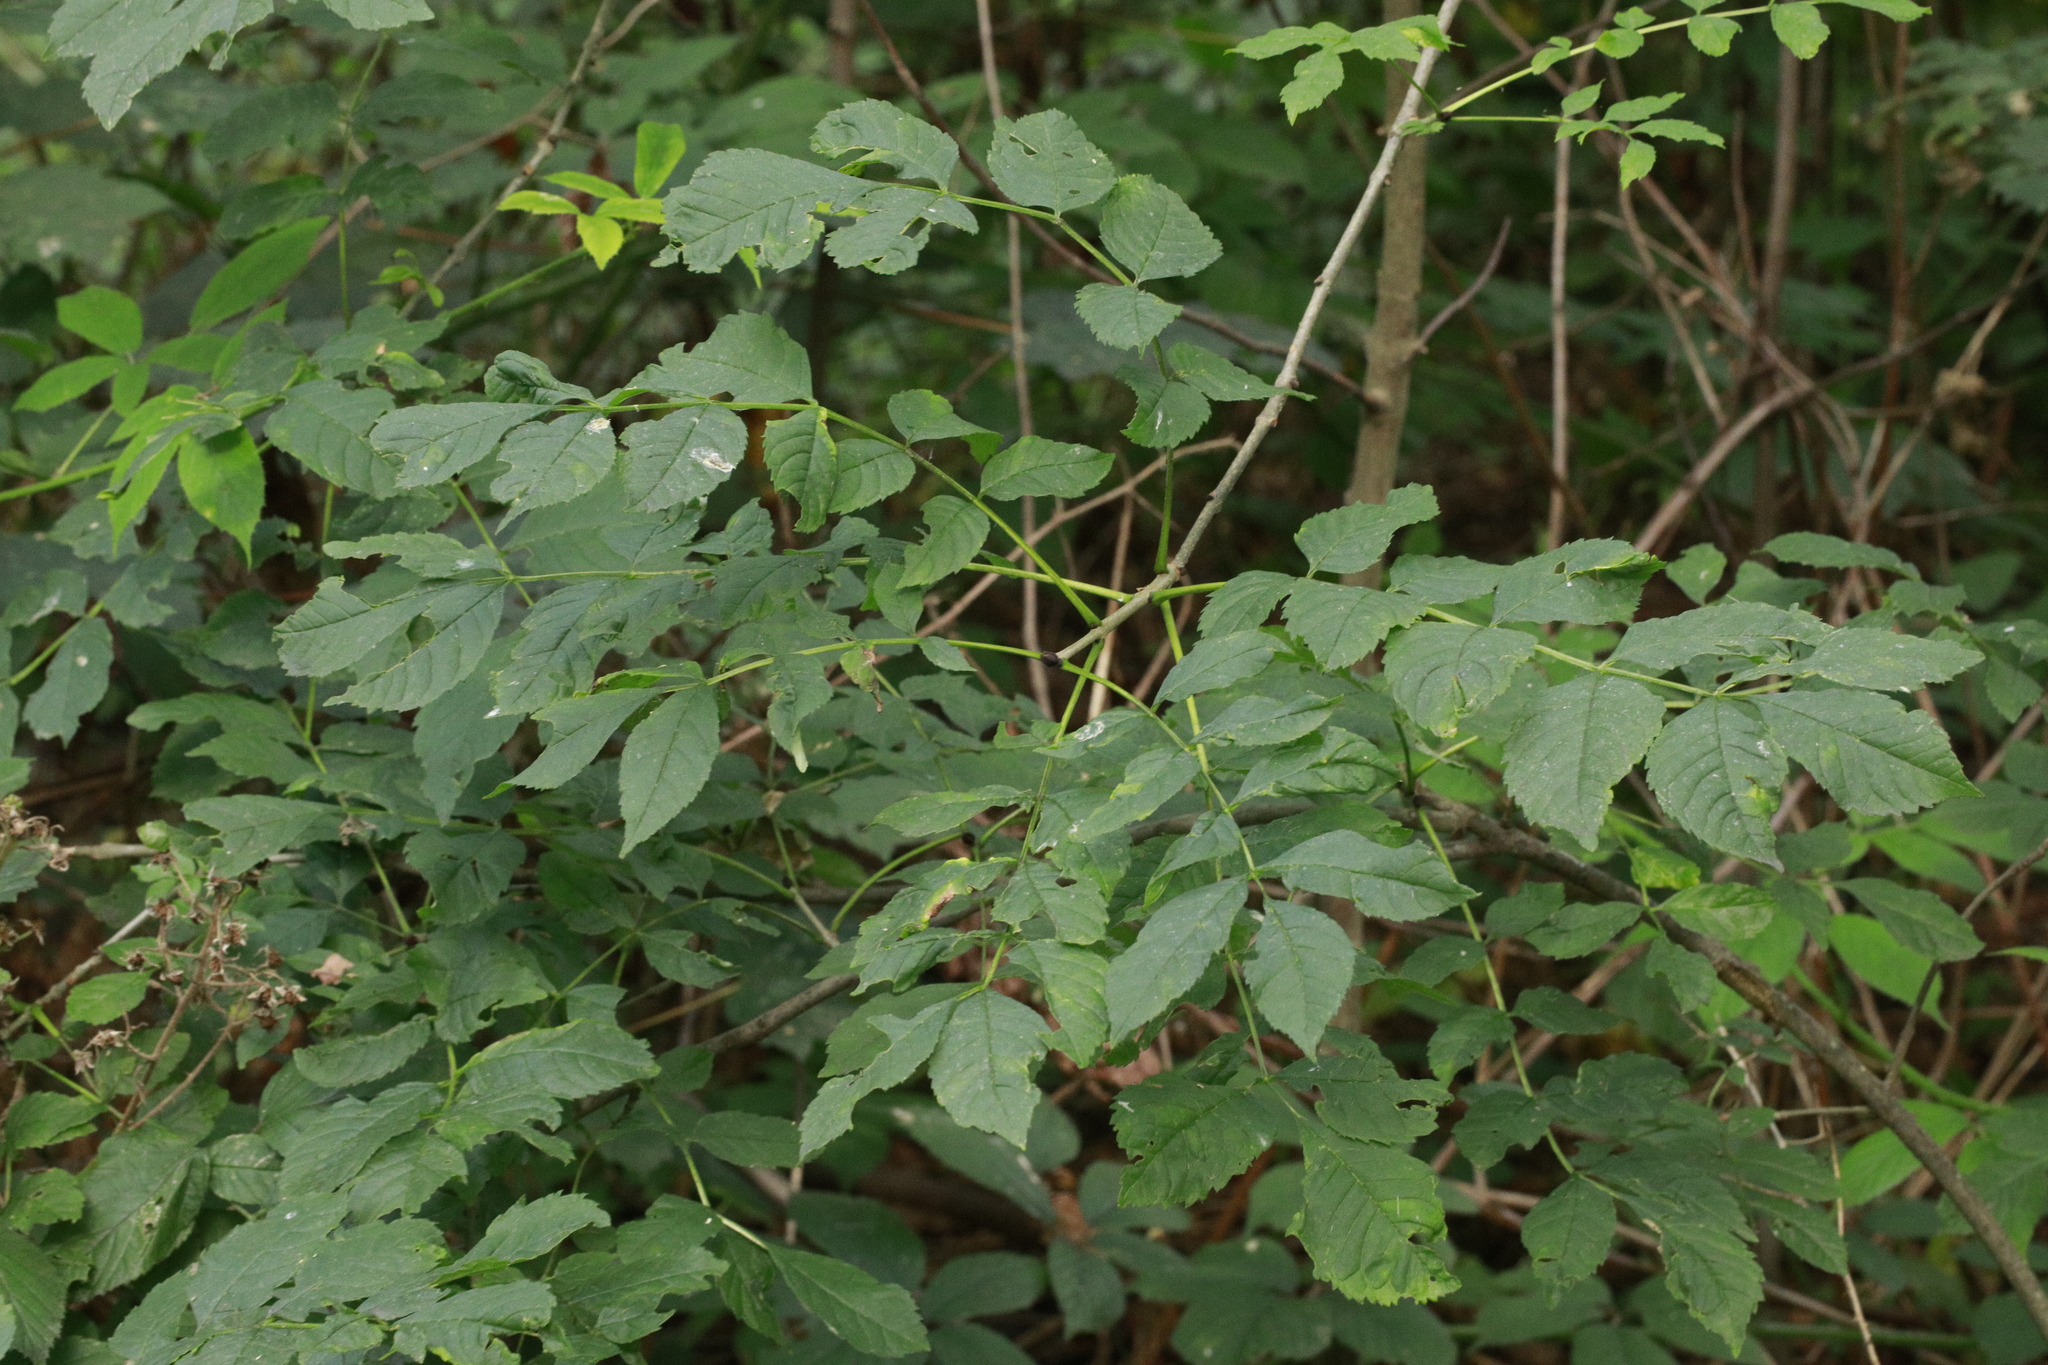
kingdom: Plantae
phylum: Tracheophyta
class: Magnoliopsida
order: Lamiales
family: Oleaceae
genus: Fraxinus
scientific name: Fraxinus excelsior
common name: European ash
